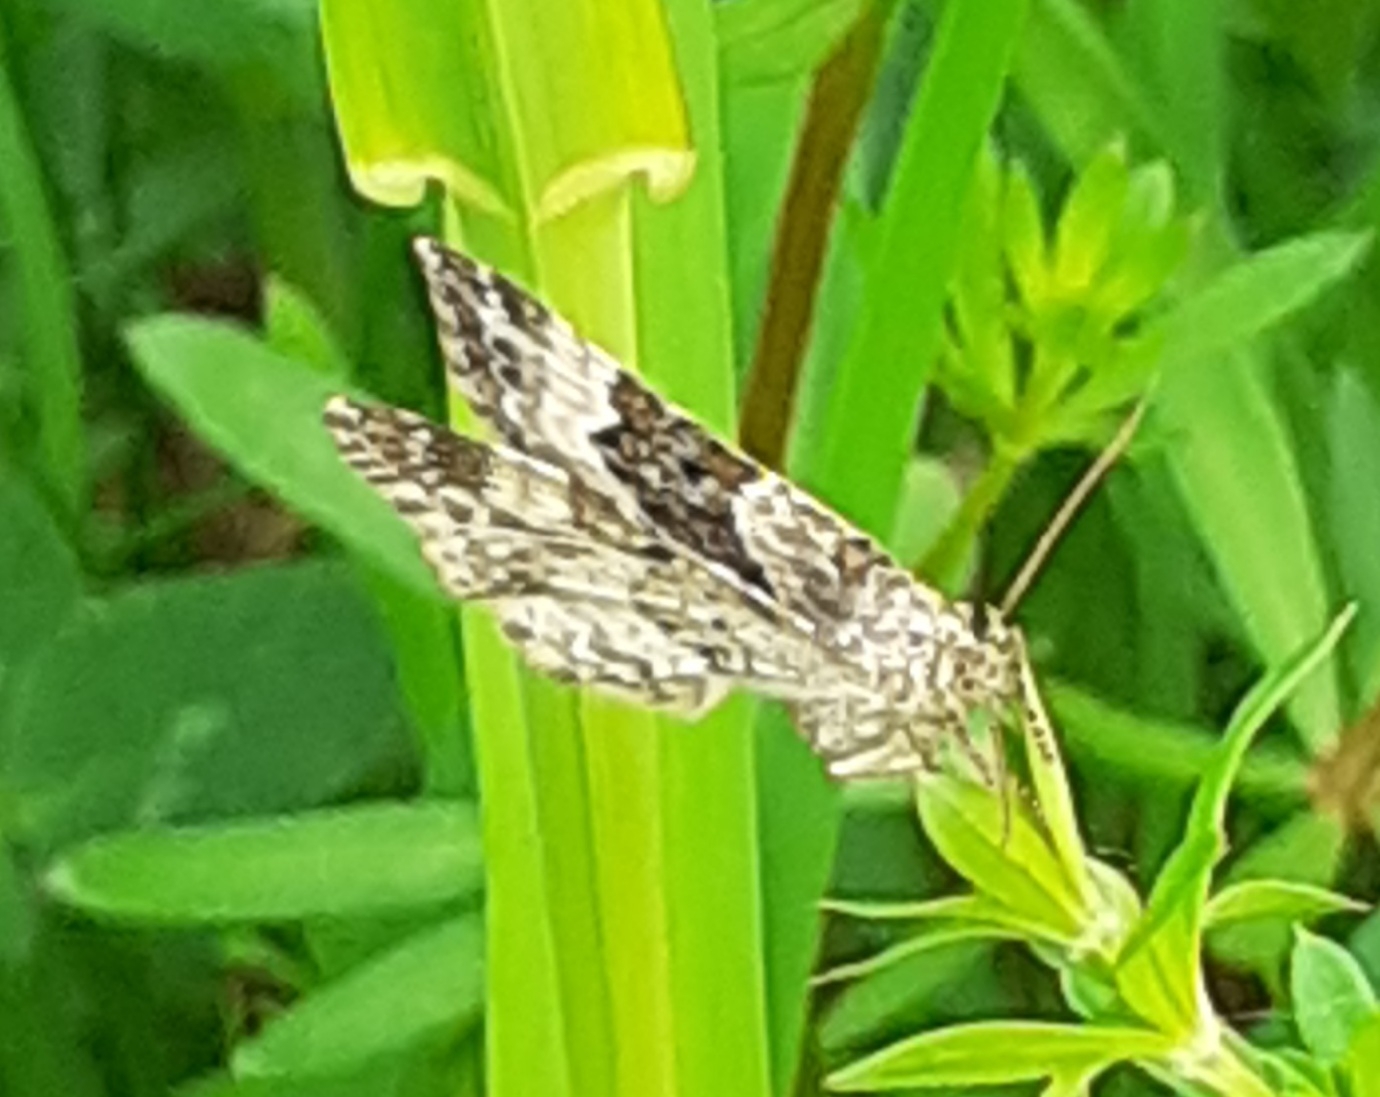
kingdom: Animalia
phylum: Arthropoda
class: Insecta
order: Lepidoptera
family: Geometridae
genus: Epirrhoe
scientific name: Epirrhoe alternata
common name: Common carpet
